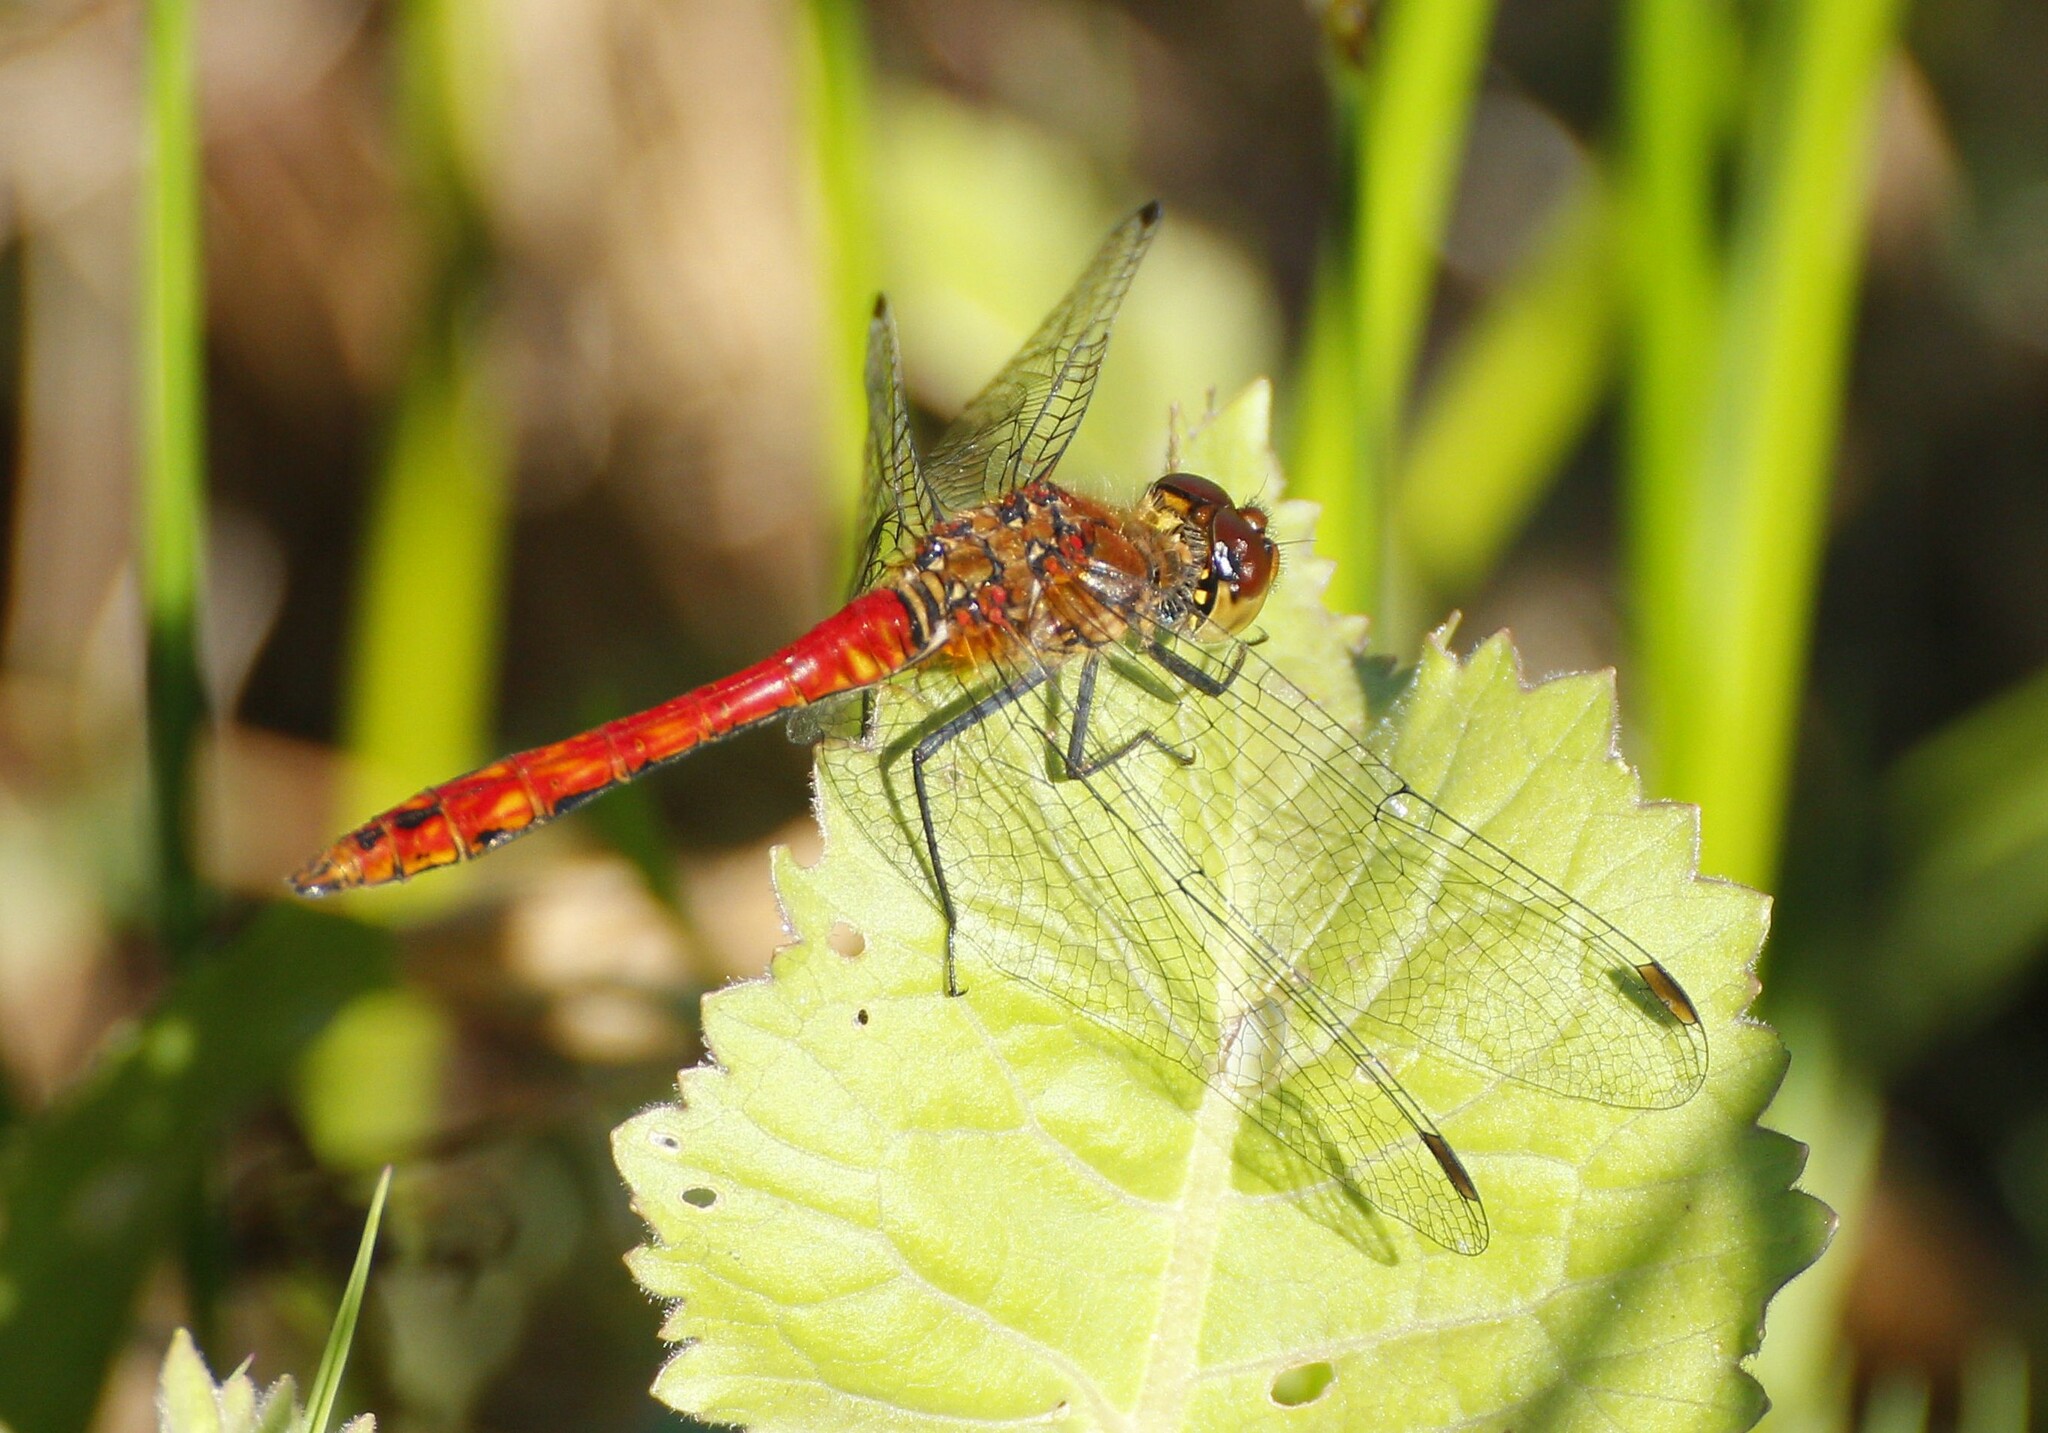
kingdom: Animalia
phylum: Arthropoda
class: Insecta
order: Odonata
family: Libellulidae
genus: Sympetrum
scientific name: Sympetrum sanguineum
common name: Ruddy darter
